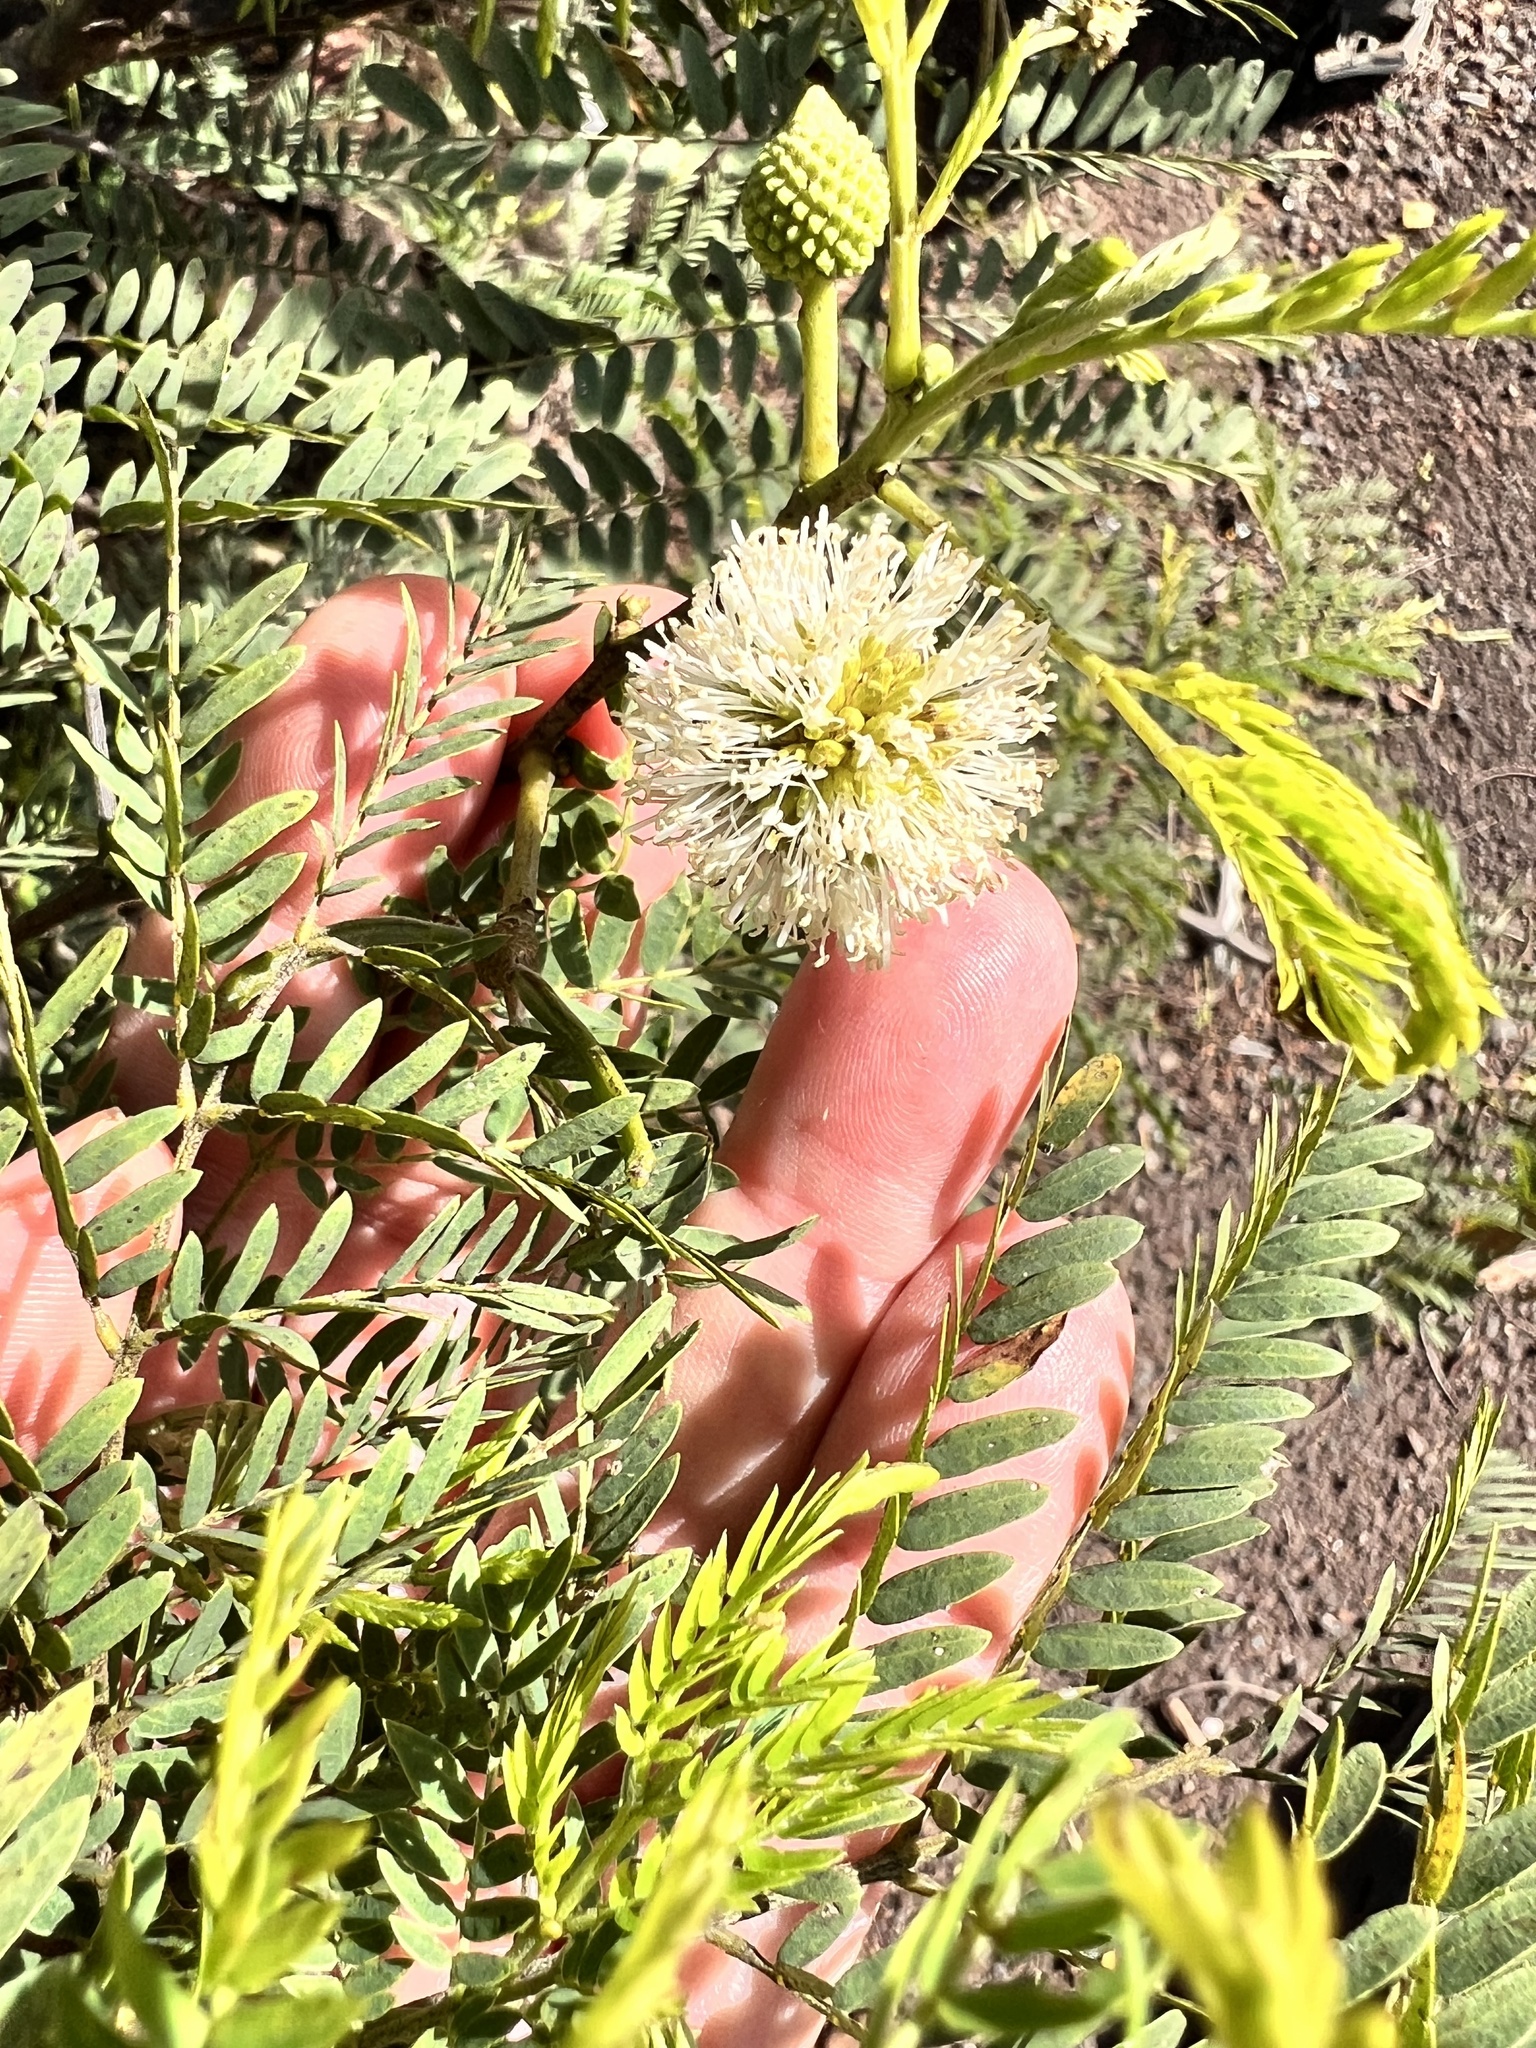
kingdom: Plantae
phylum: Tracheophyta
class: Magnoliopsida
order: Fabales
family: Fabaceae
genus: Leucaena
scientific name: Leucaena leucocephala
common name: White leadtree
